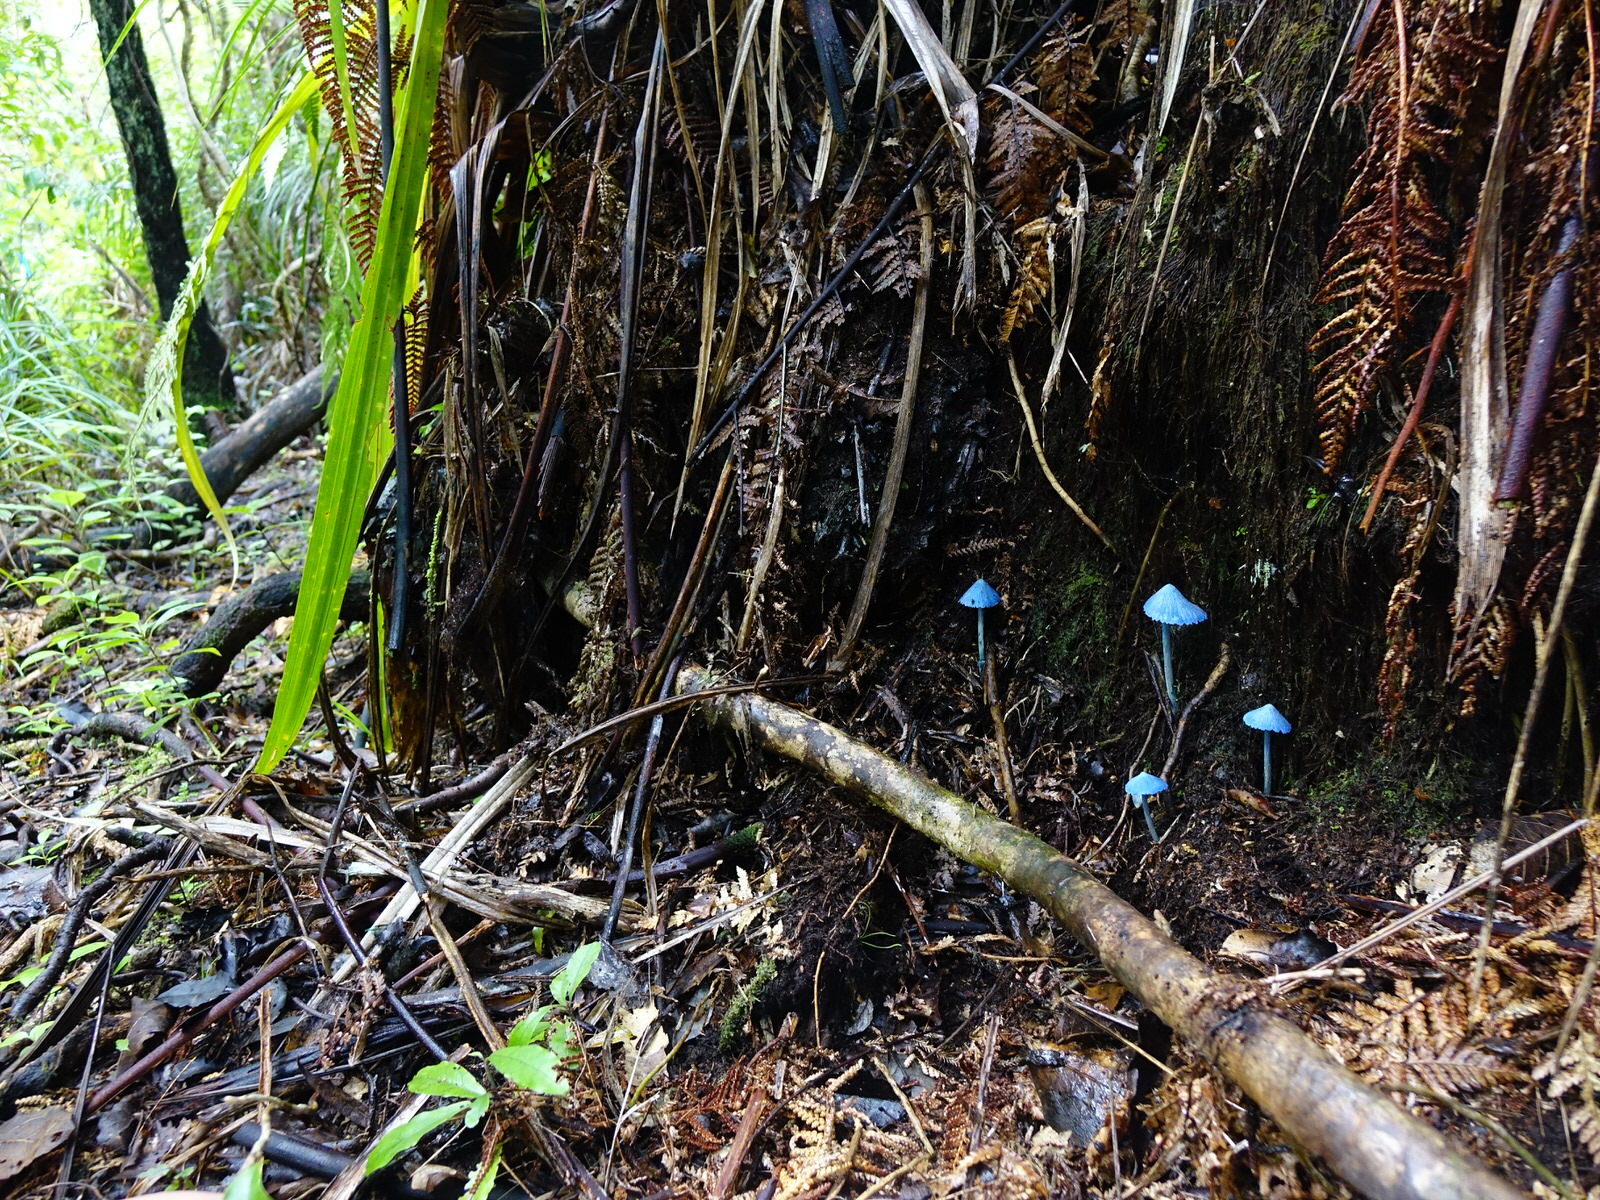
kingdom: Fungi
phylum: Basidiomycota
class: Agaricomycetes
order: Agaricales
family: Entolomataceae
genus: Entoloma
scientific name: Entoloma hochstetteri
